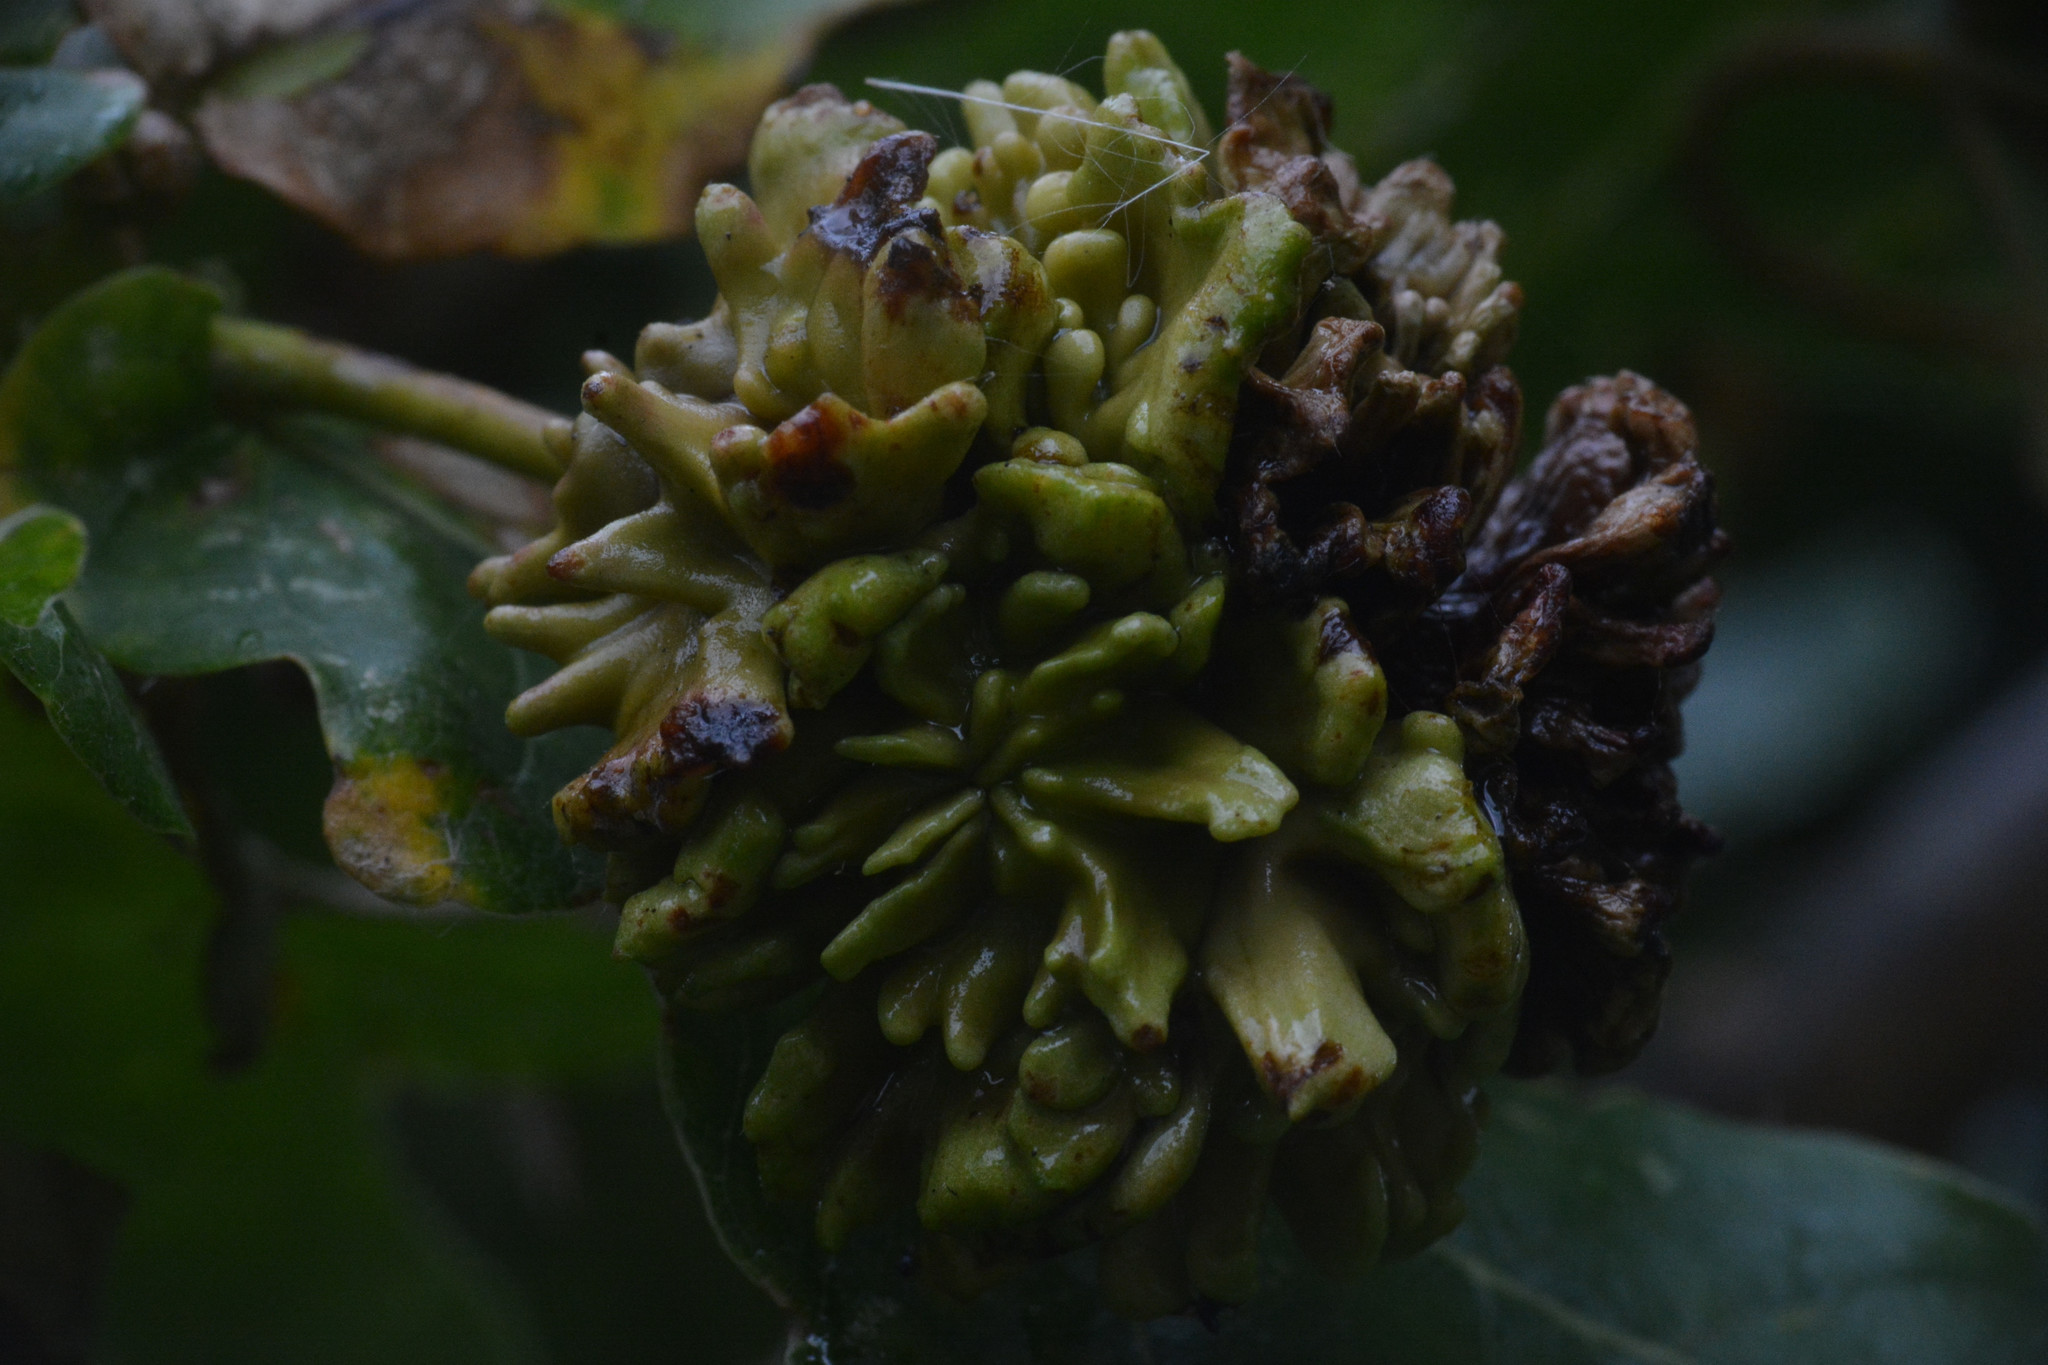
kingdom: Animalia
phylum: Arthropoda
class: Insecta
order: Hymenoptera
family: Cynipidae
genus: Andricus
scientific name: Andricus quercuscalicis
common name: Knopper gall
